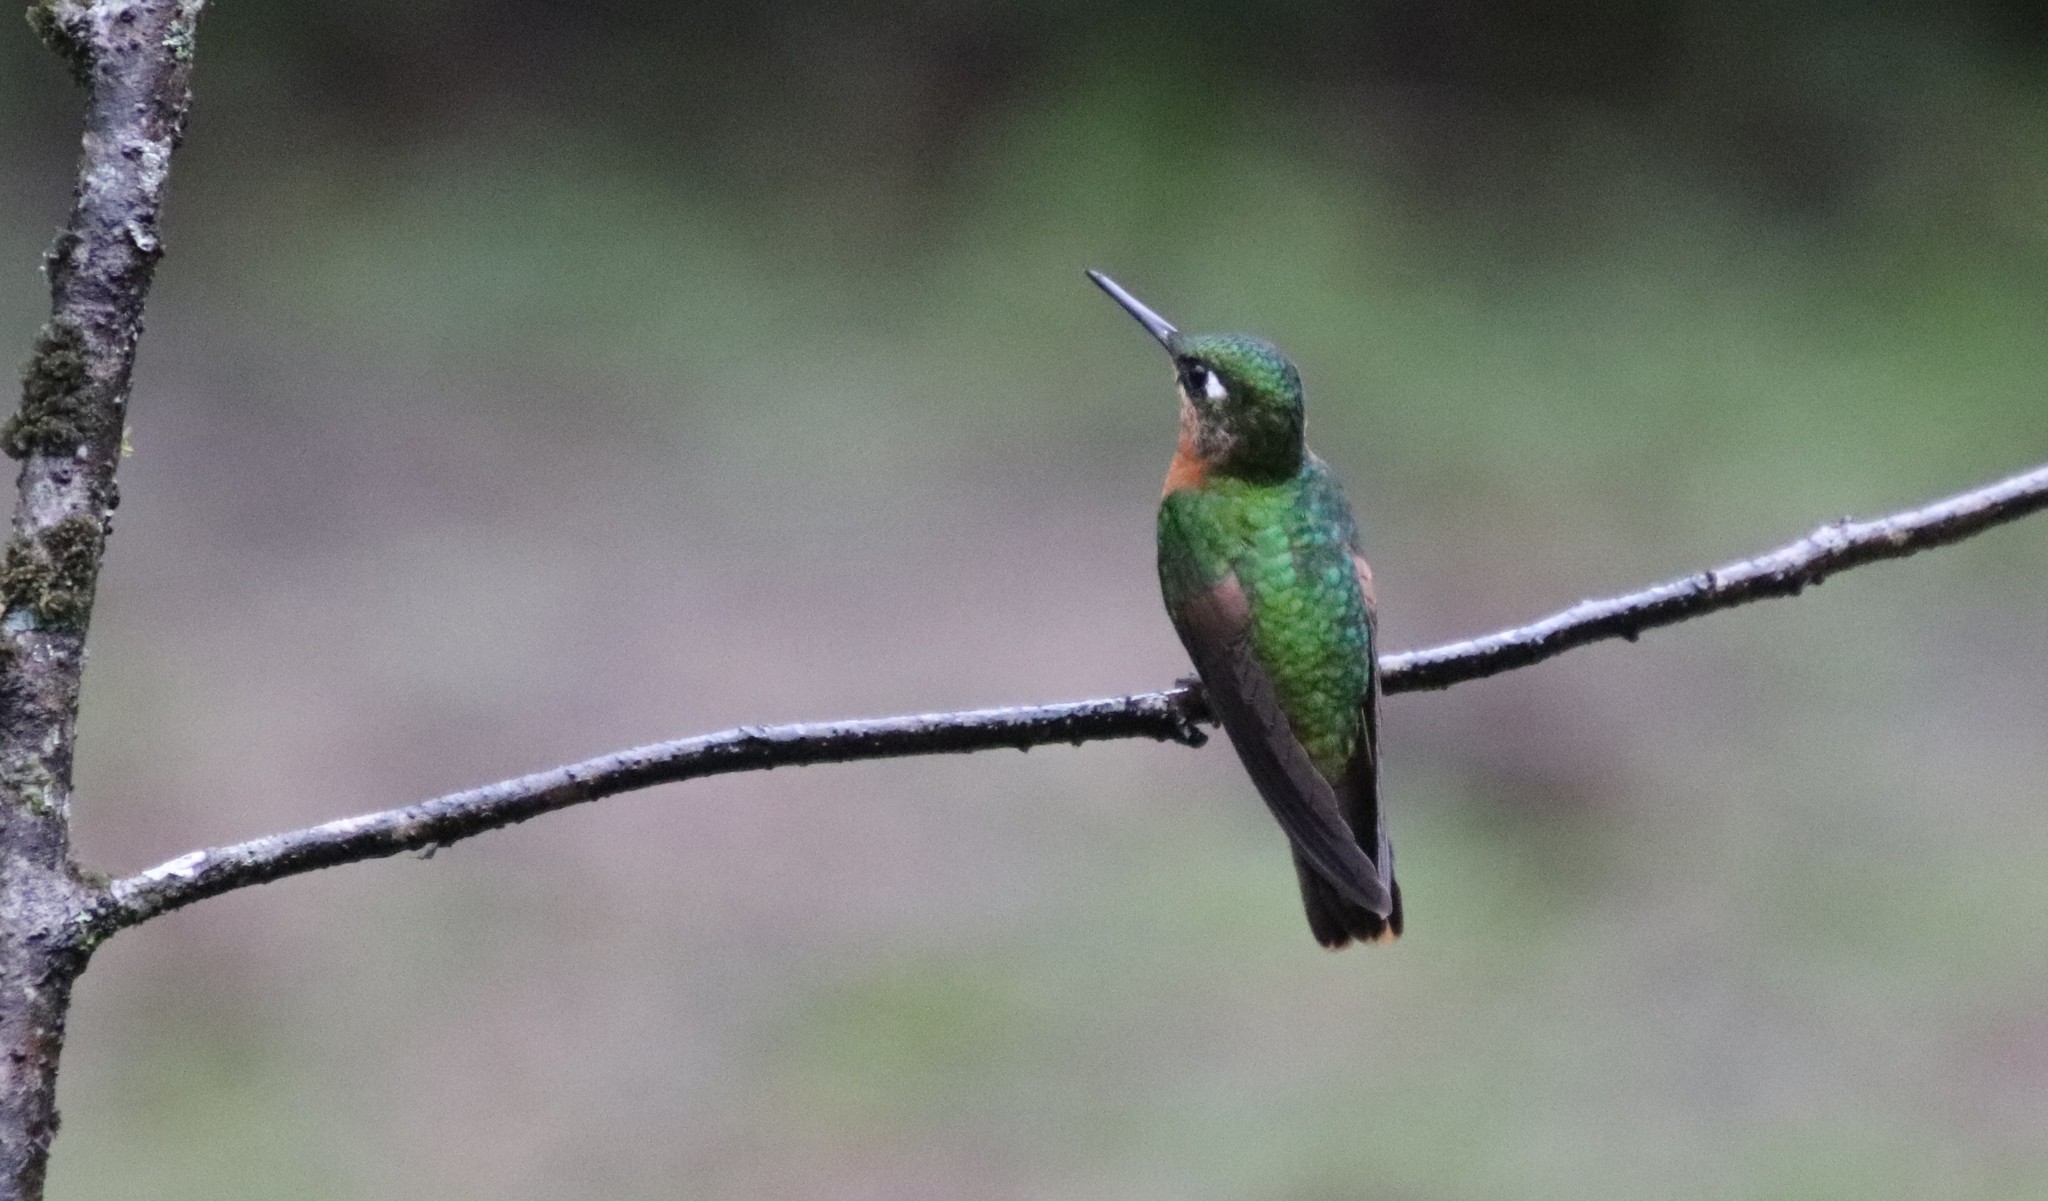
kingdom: Animalia
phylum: Chordata
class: Aves
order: Apodiformes
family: Trochilidae
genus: Clytolaema
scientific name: Clytolaema rubricauda
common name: Brazilian ruby
